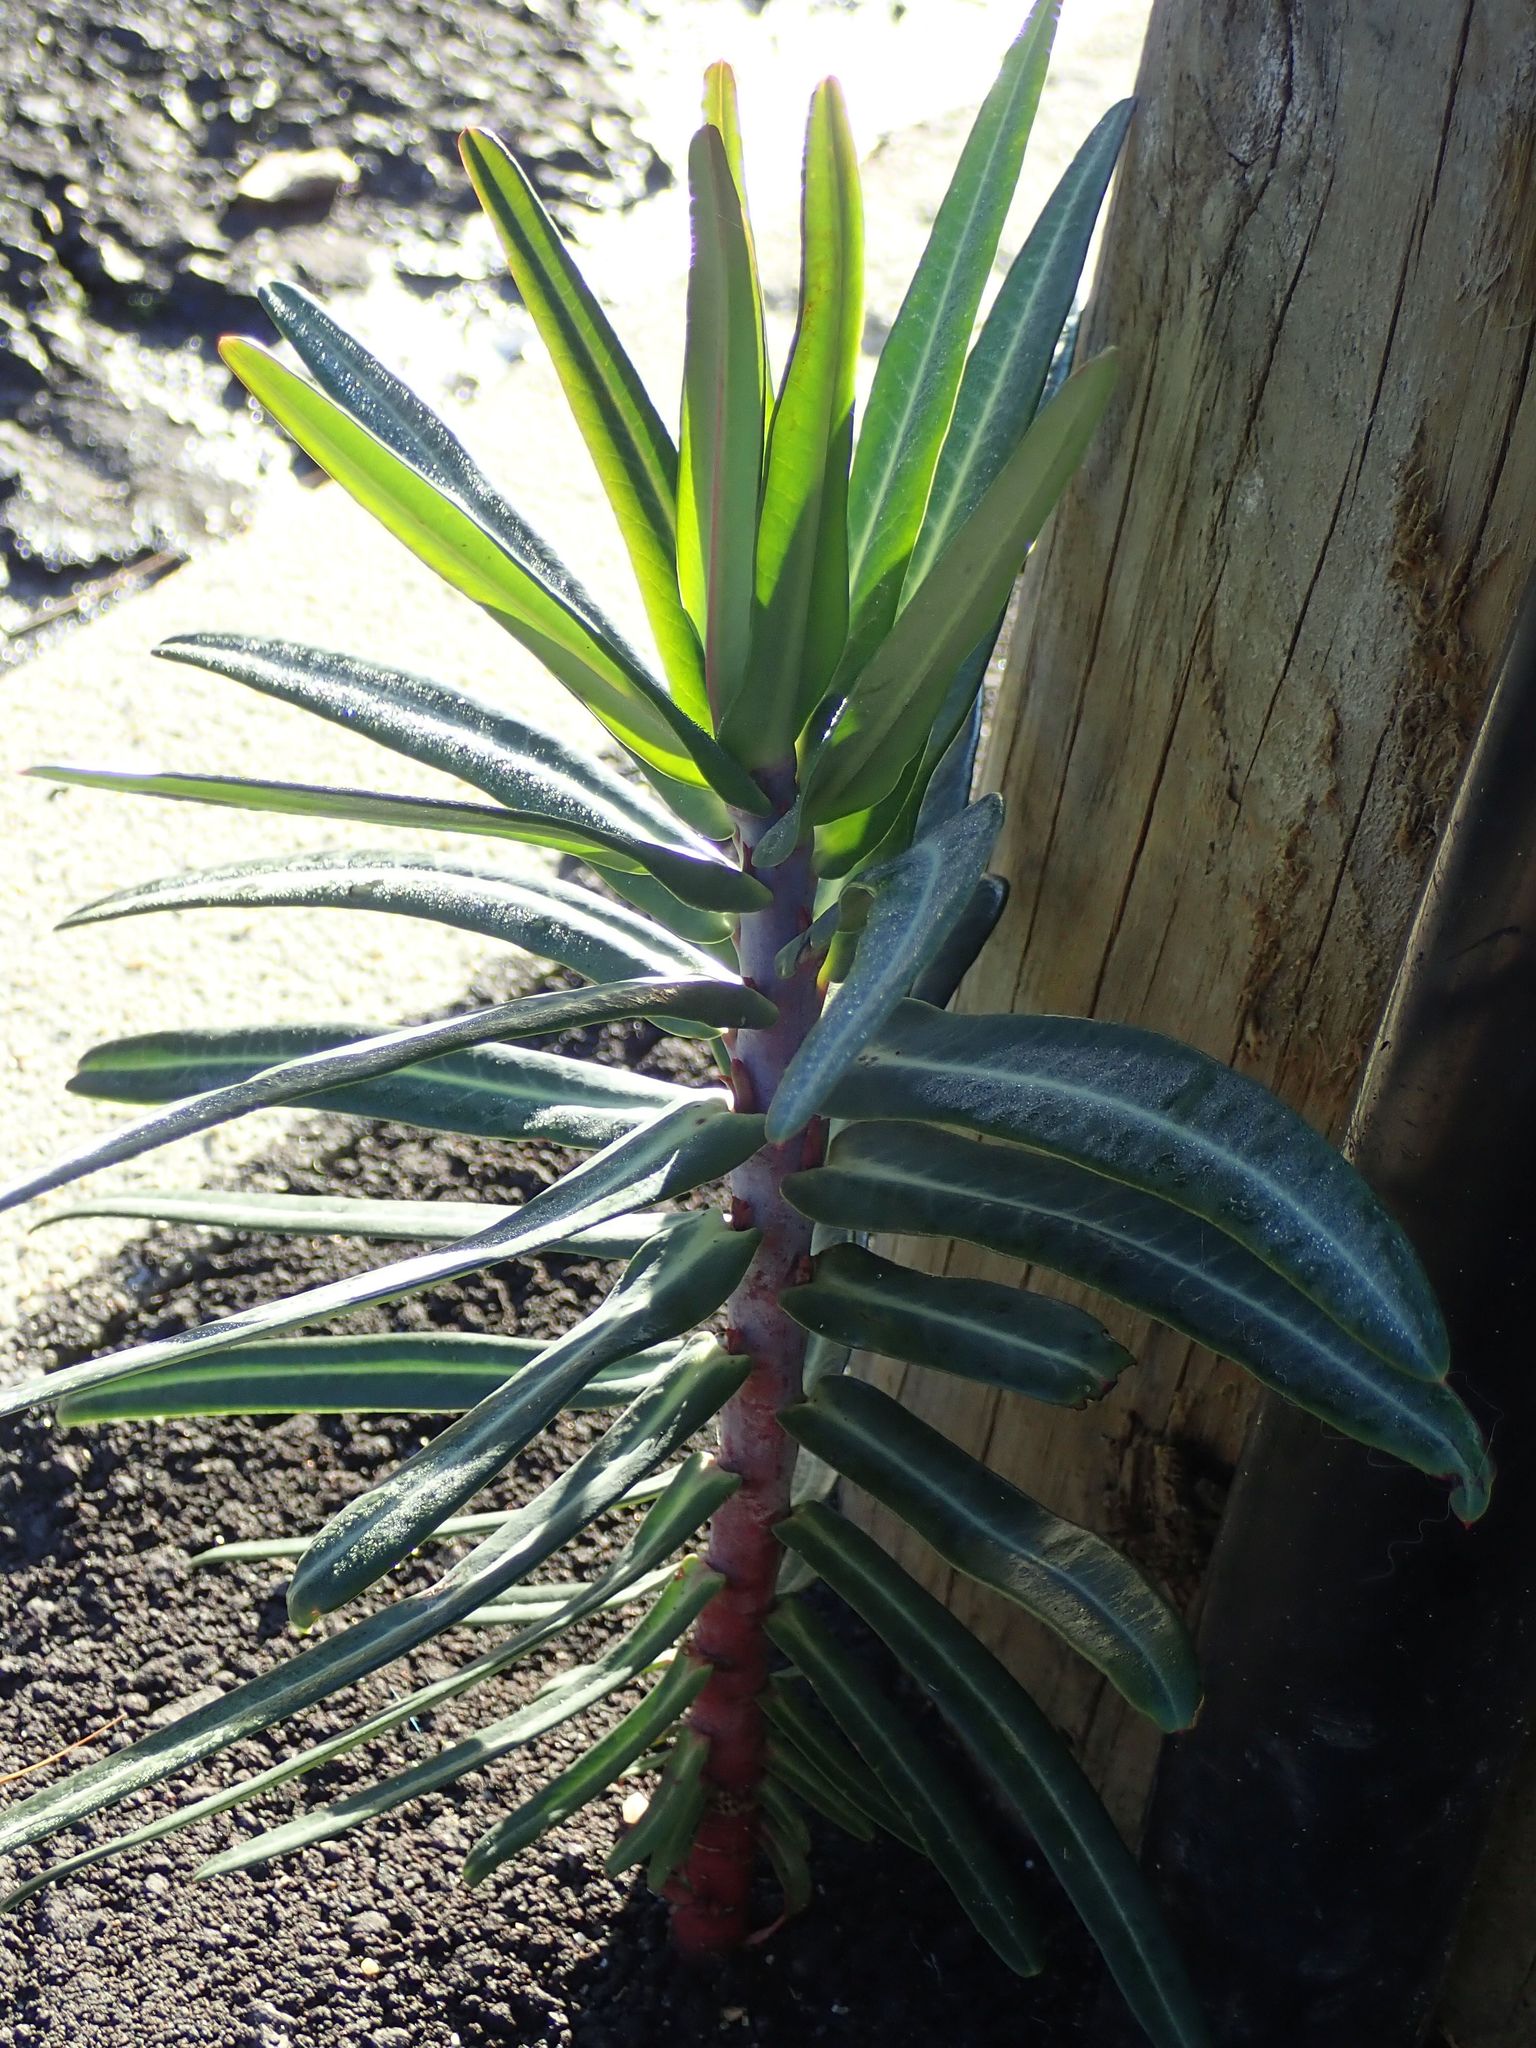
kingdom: Plantae
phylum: Tracheophyta
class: Magnoliopsida
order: Malpighiales
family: Euphorbiaceae
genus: Euphorbia
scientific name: Euphorbia lathyris
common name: Caper spurge
